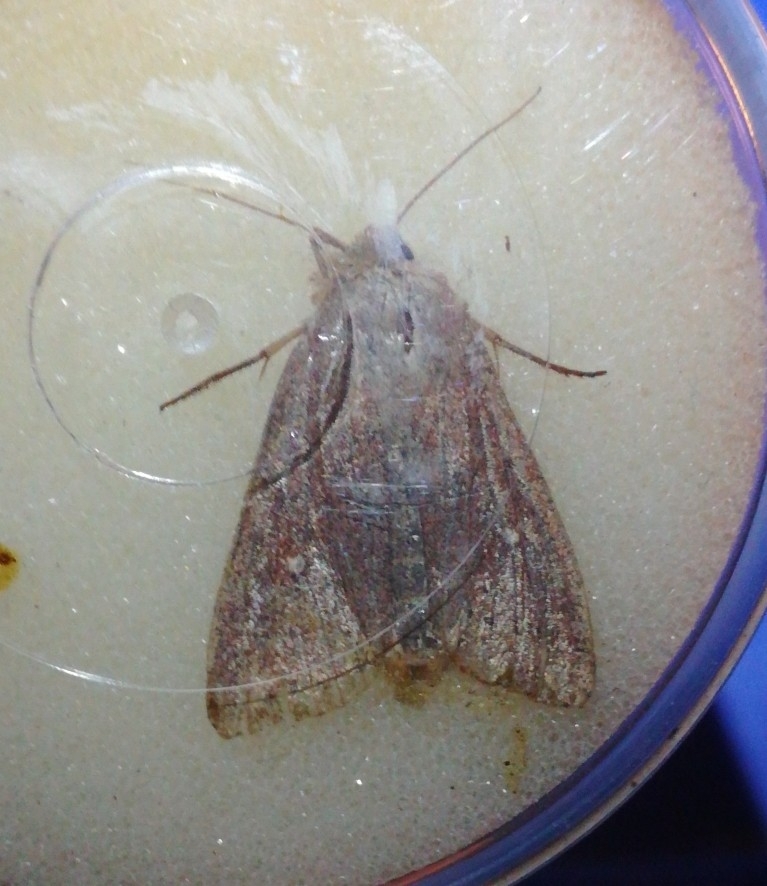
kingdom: Animalia
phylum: Arthropoda
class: Insecta
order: Lepidoptera
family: Noctuidae
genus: Mythimna
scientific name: Mythimna albipuncta
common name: White-point
